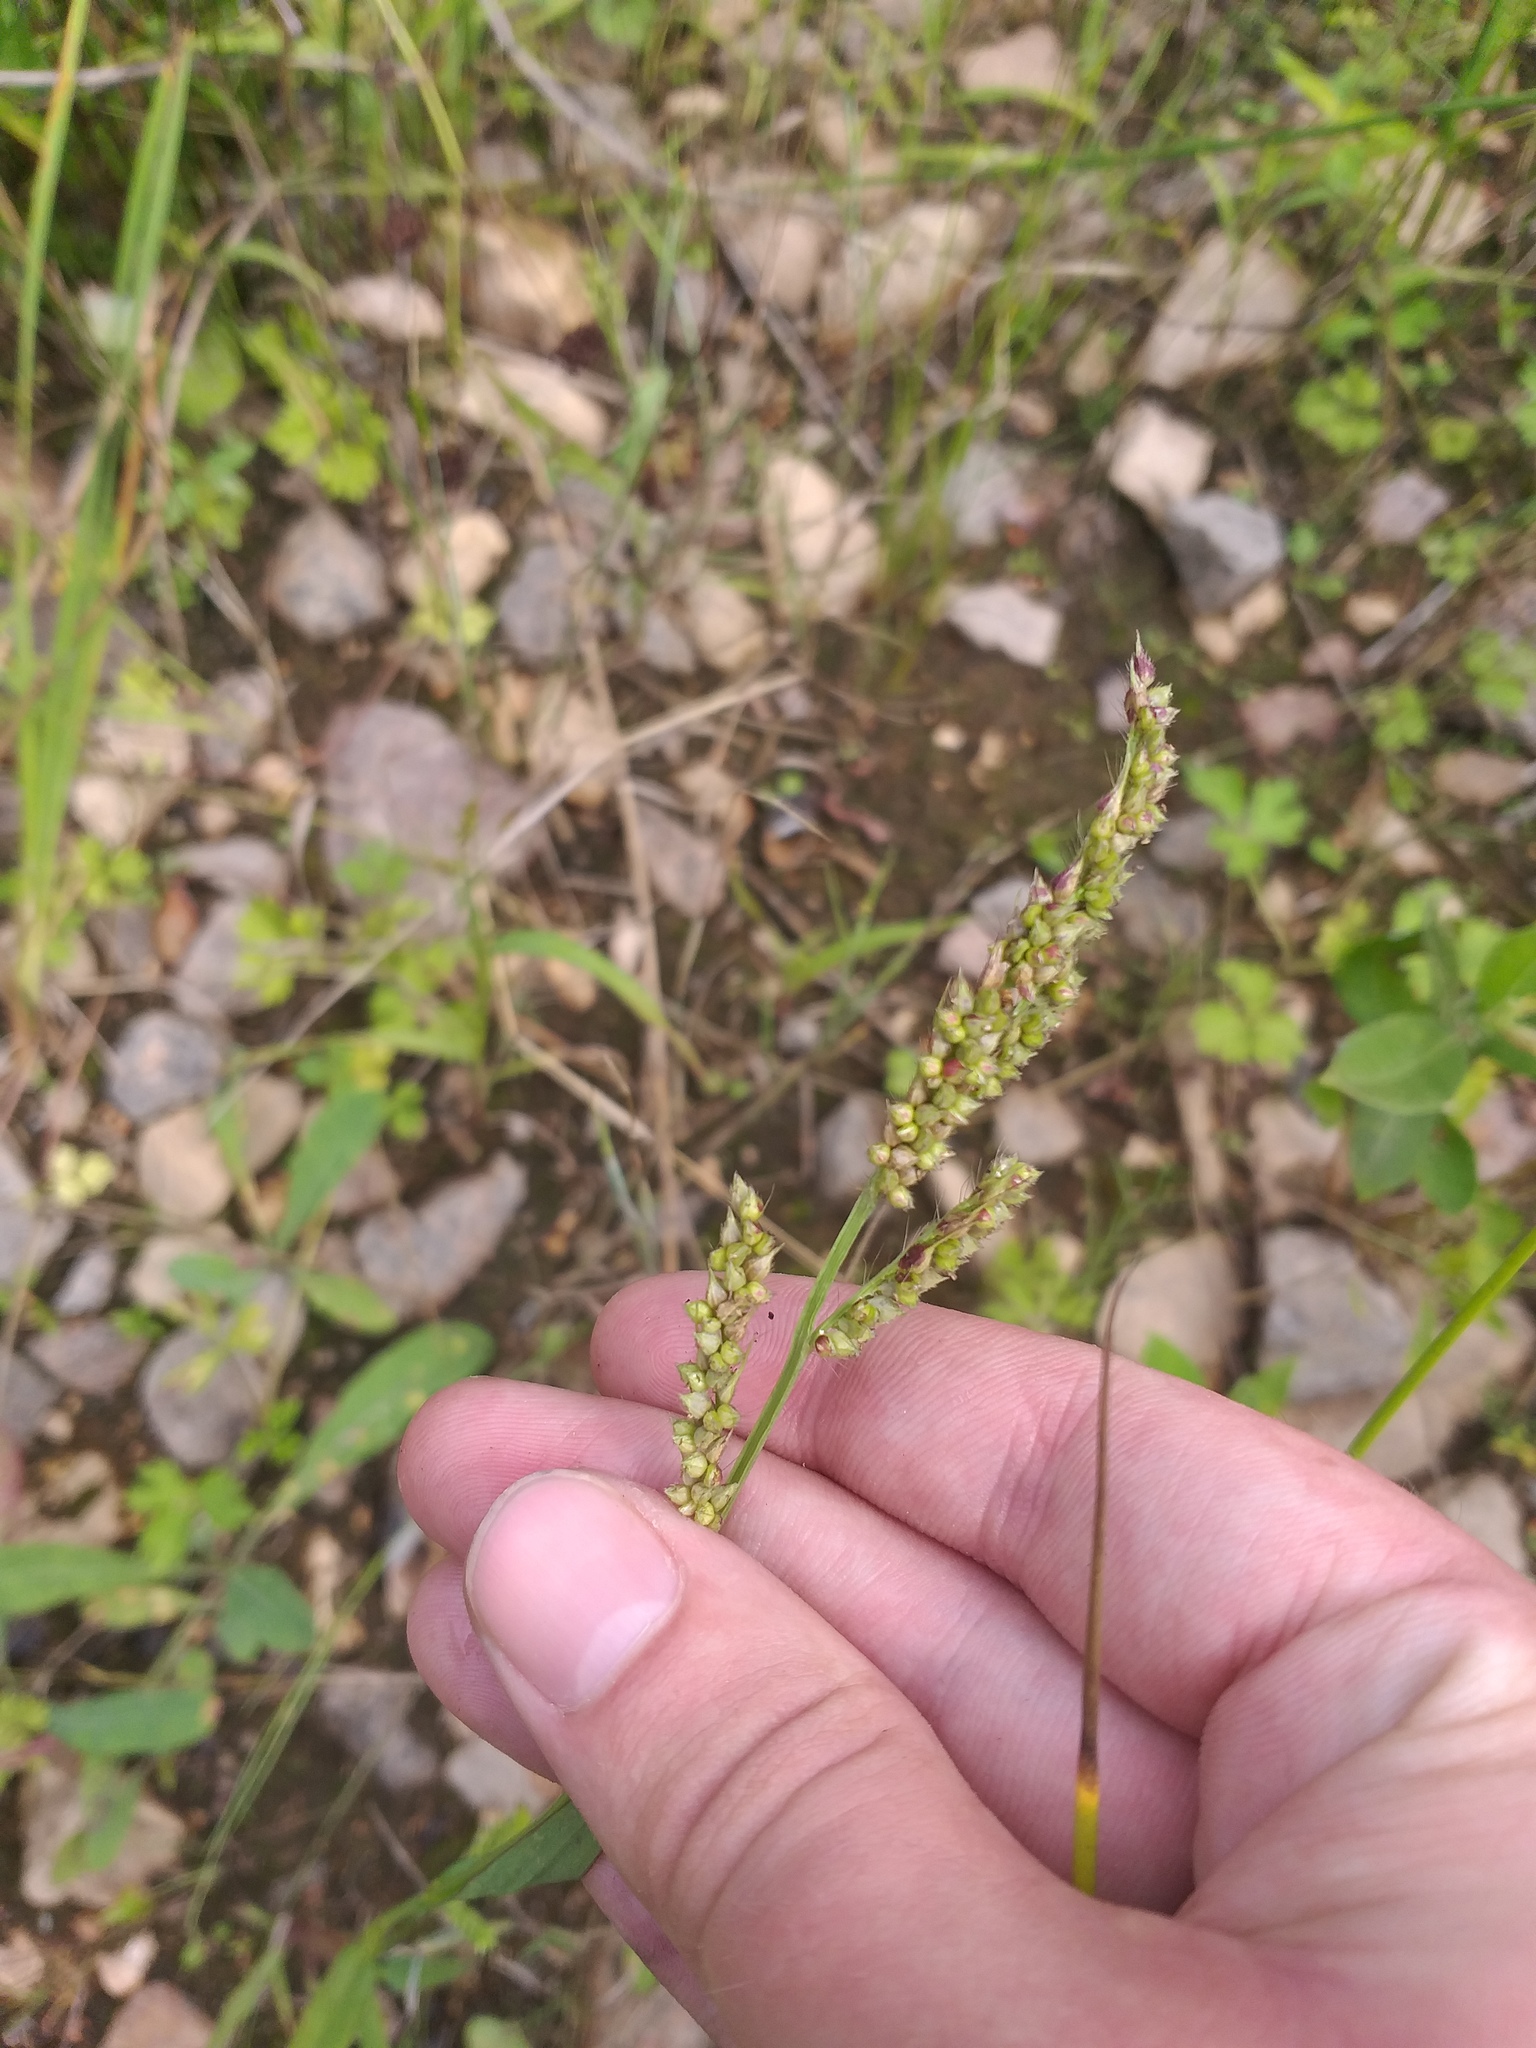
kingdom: Plantae
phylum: Tracheophyta
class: Liliopsida
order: Poales
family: Poaceae
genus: Echinochloa
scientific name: Echinochloa crus-galli
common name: Cockspur
